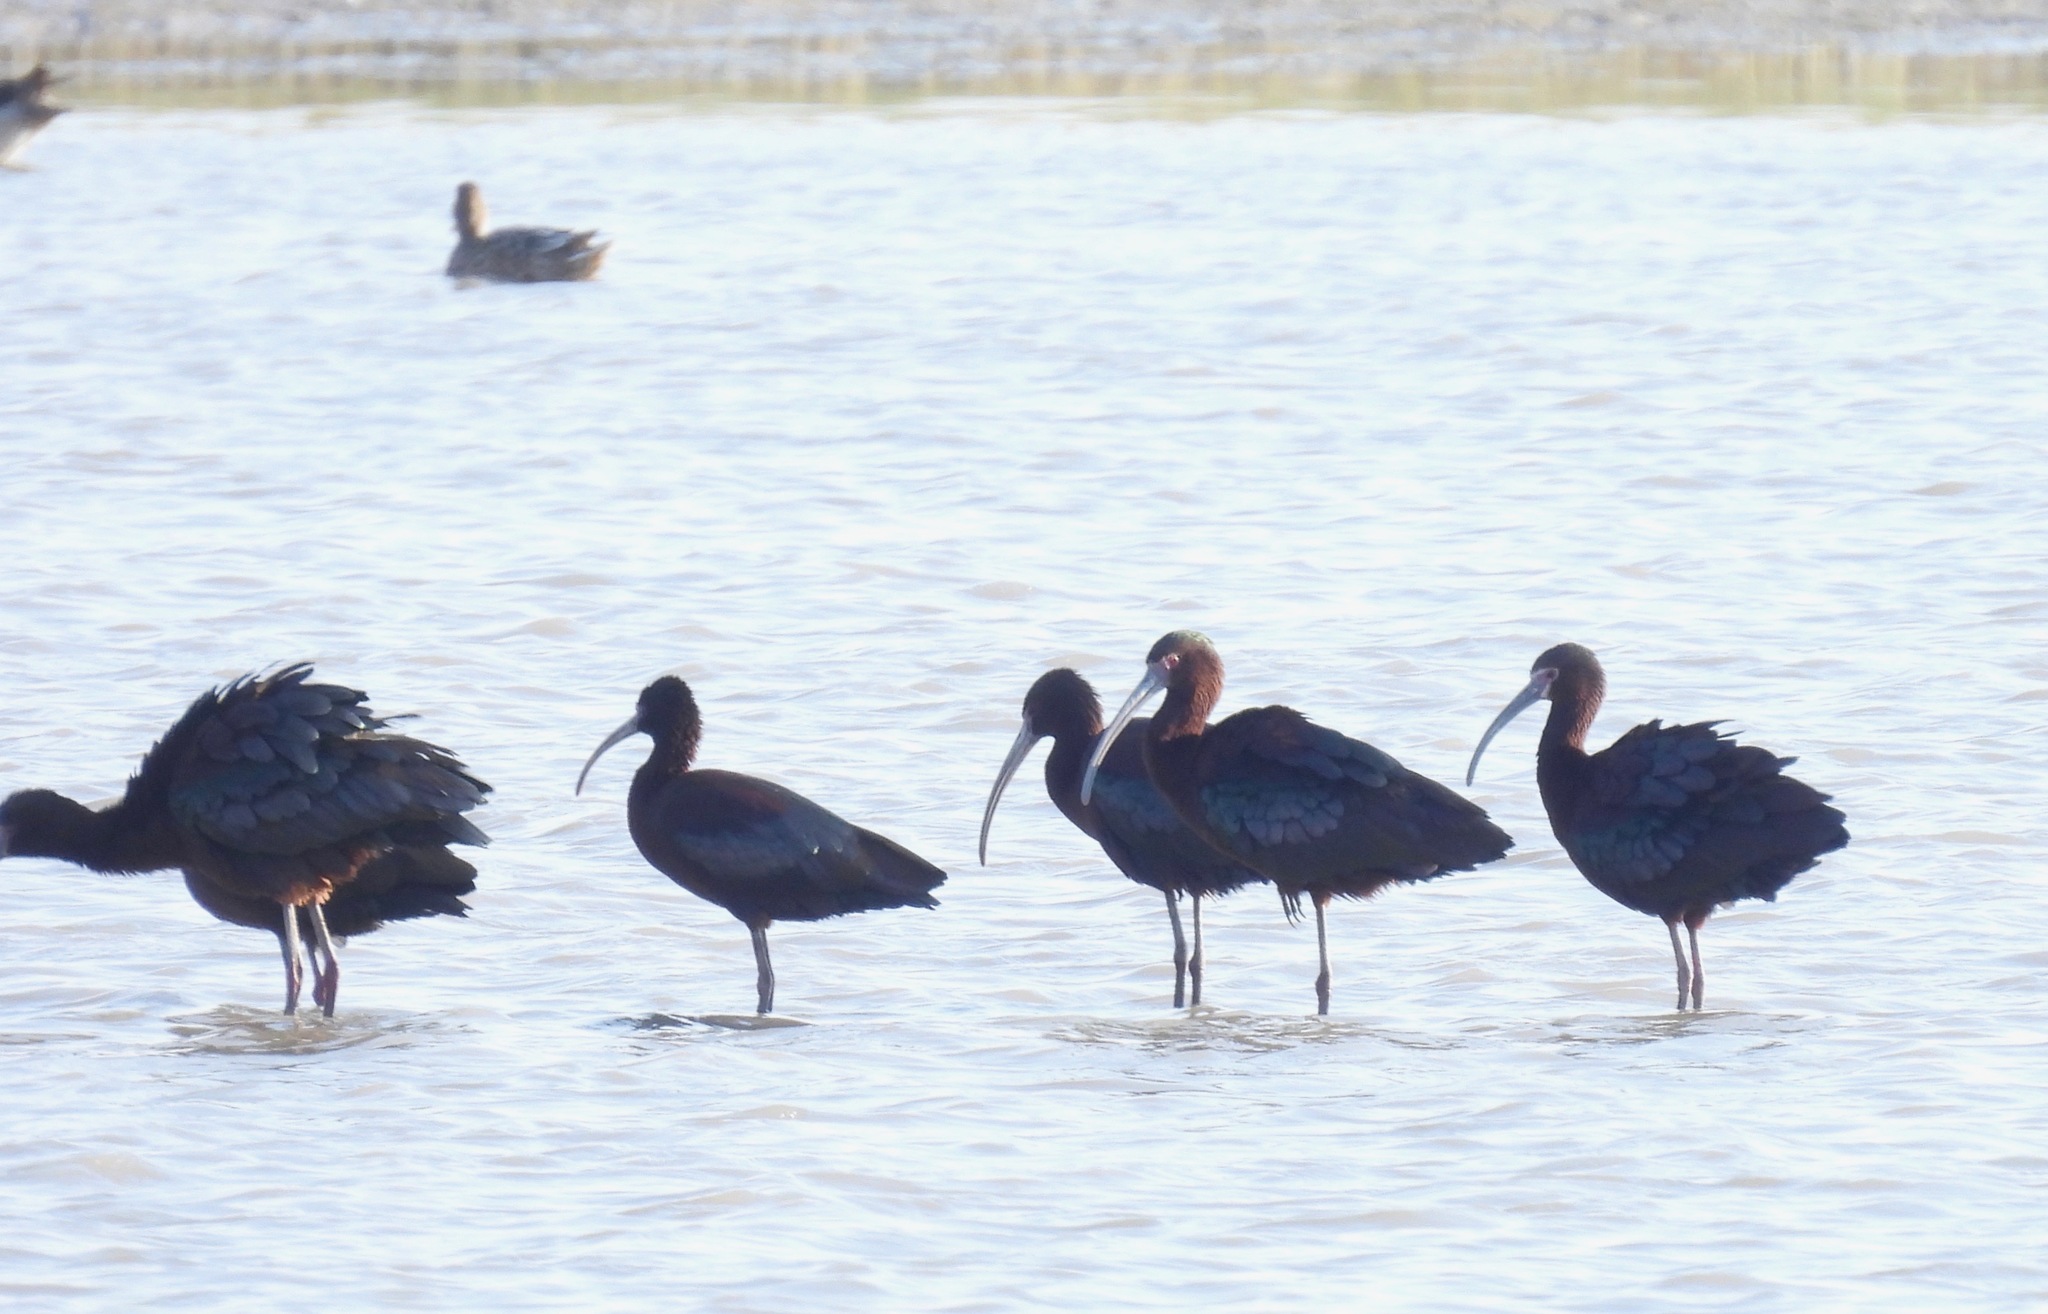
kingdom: Animalia
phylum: Chordata
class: Aves
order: Pelecaniformes
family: Threskiornithidae
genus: Plegadis
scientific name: Plegadis chihi
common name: White-faced ibis
